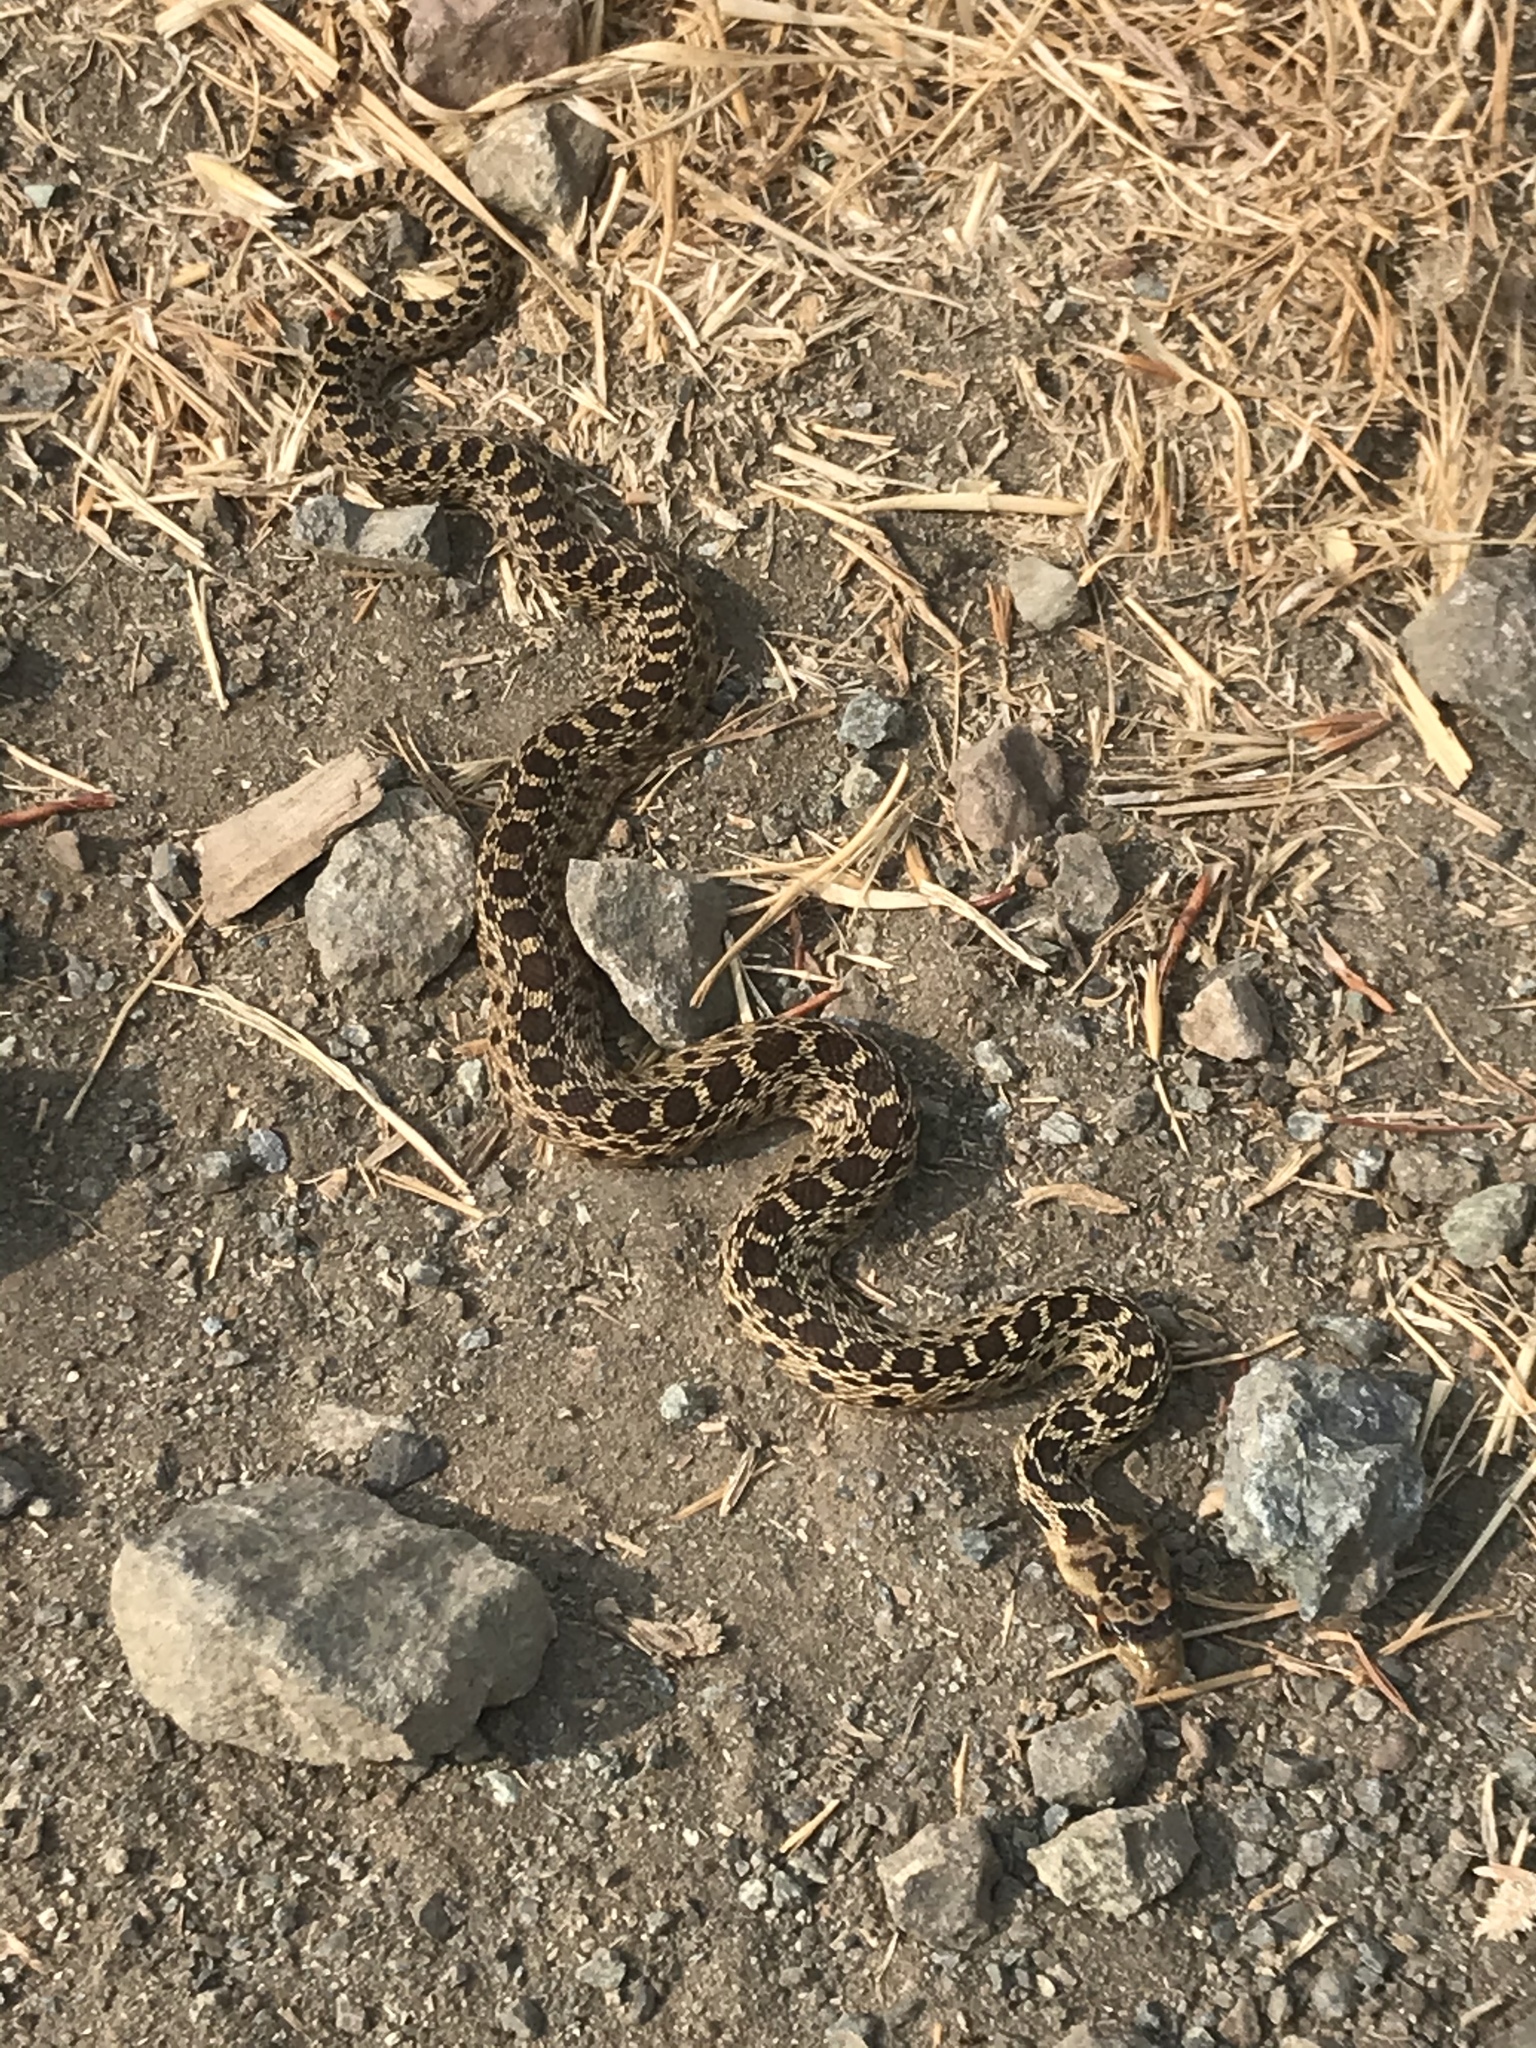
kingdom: Animalia
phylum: Chordata
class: Squamata
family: Colubridae
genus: Pituophis
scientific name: Pituophis catenifer
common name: Gopher snake
